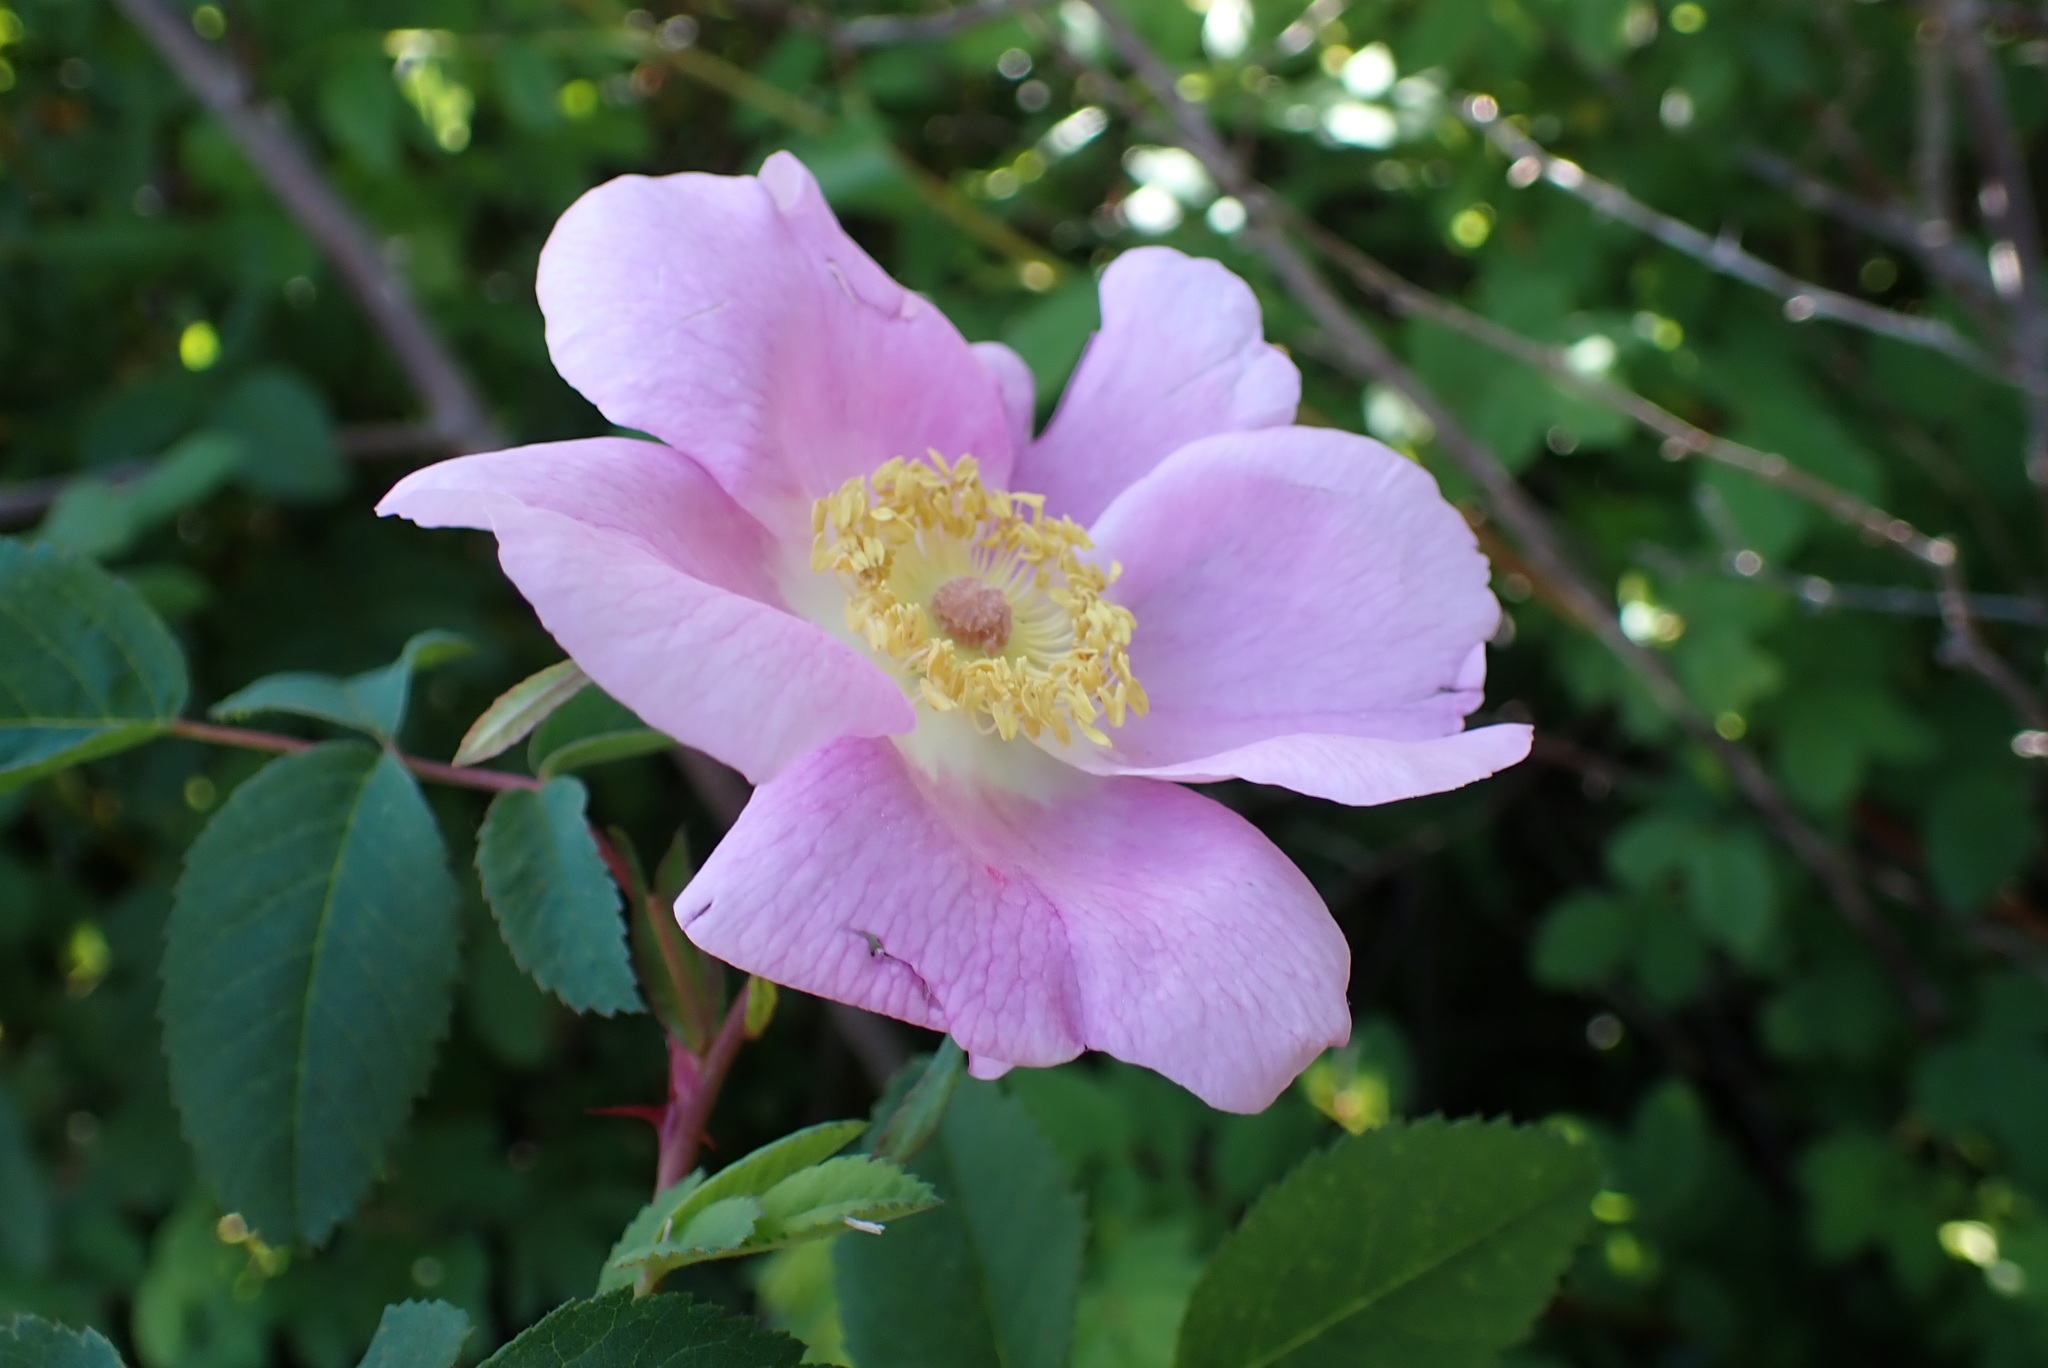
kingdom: Plantae
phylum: Tracheophyta
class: Magnoliopsida
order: Rosales
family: Rosaceae
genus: Rosa
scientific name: Rosa nutkana
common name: Nootka rose
